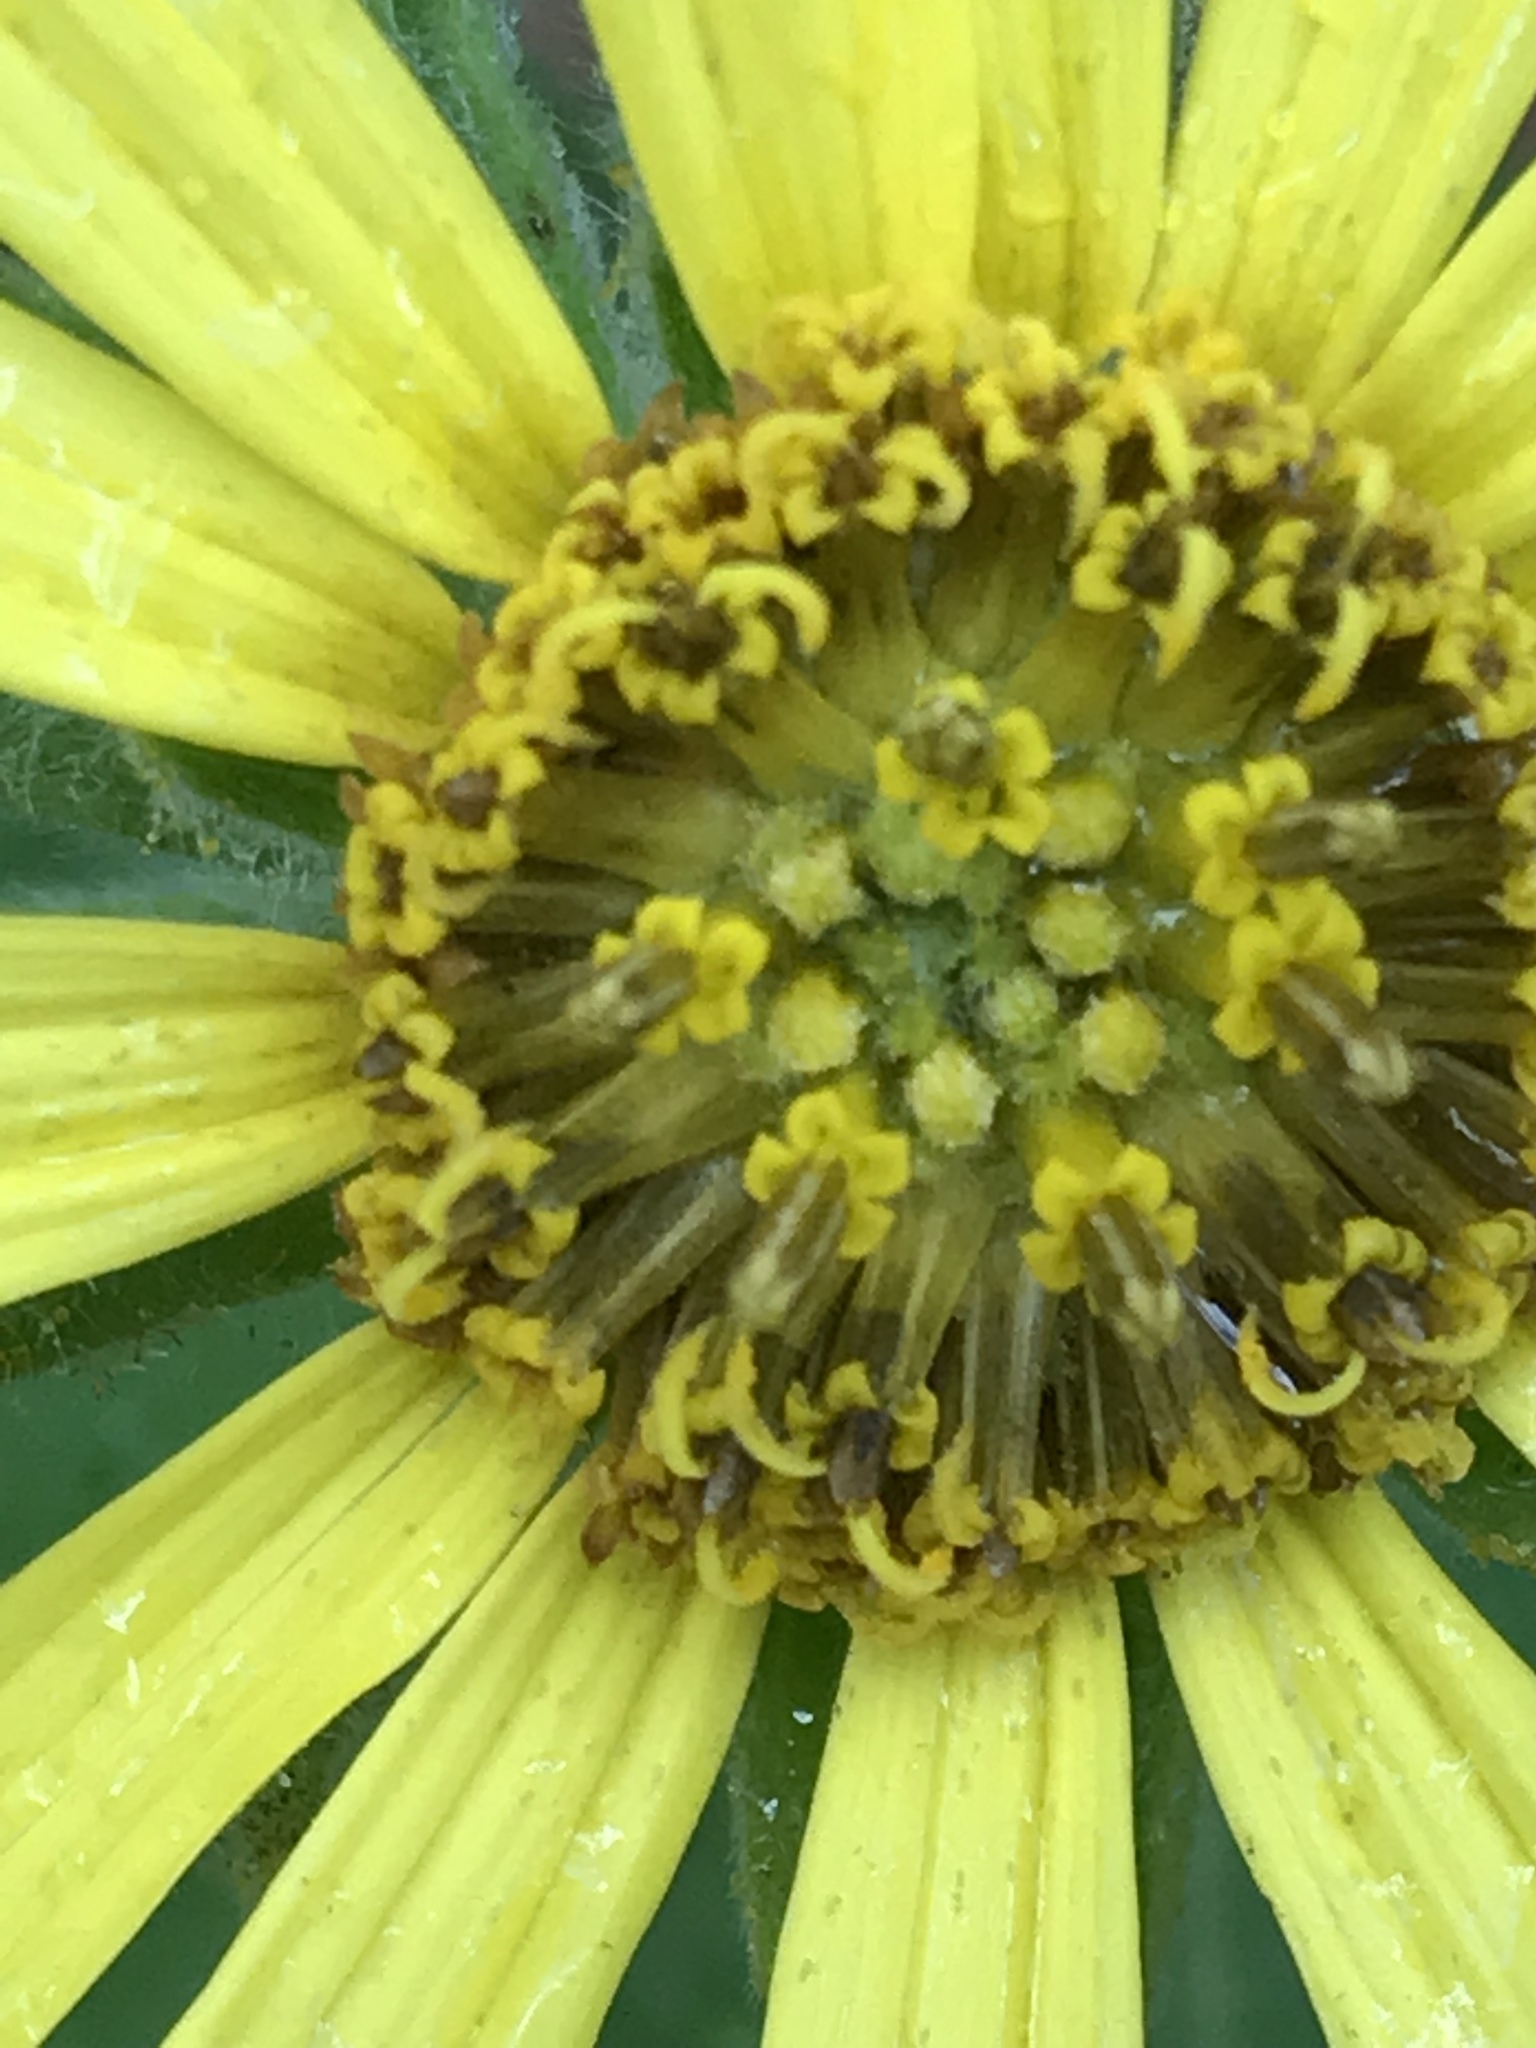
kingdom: Plantae
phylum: Tracheophyta
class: Magnoliopsida
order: Asterales
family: Asteraceae
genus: Vigethia
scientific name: Vigethia mexicana
